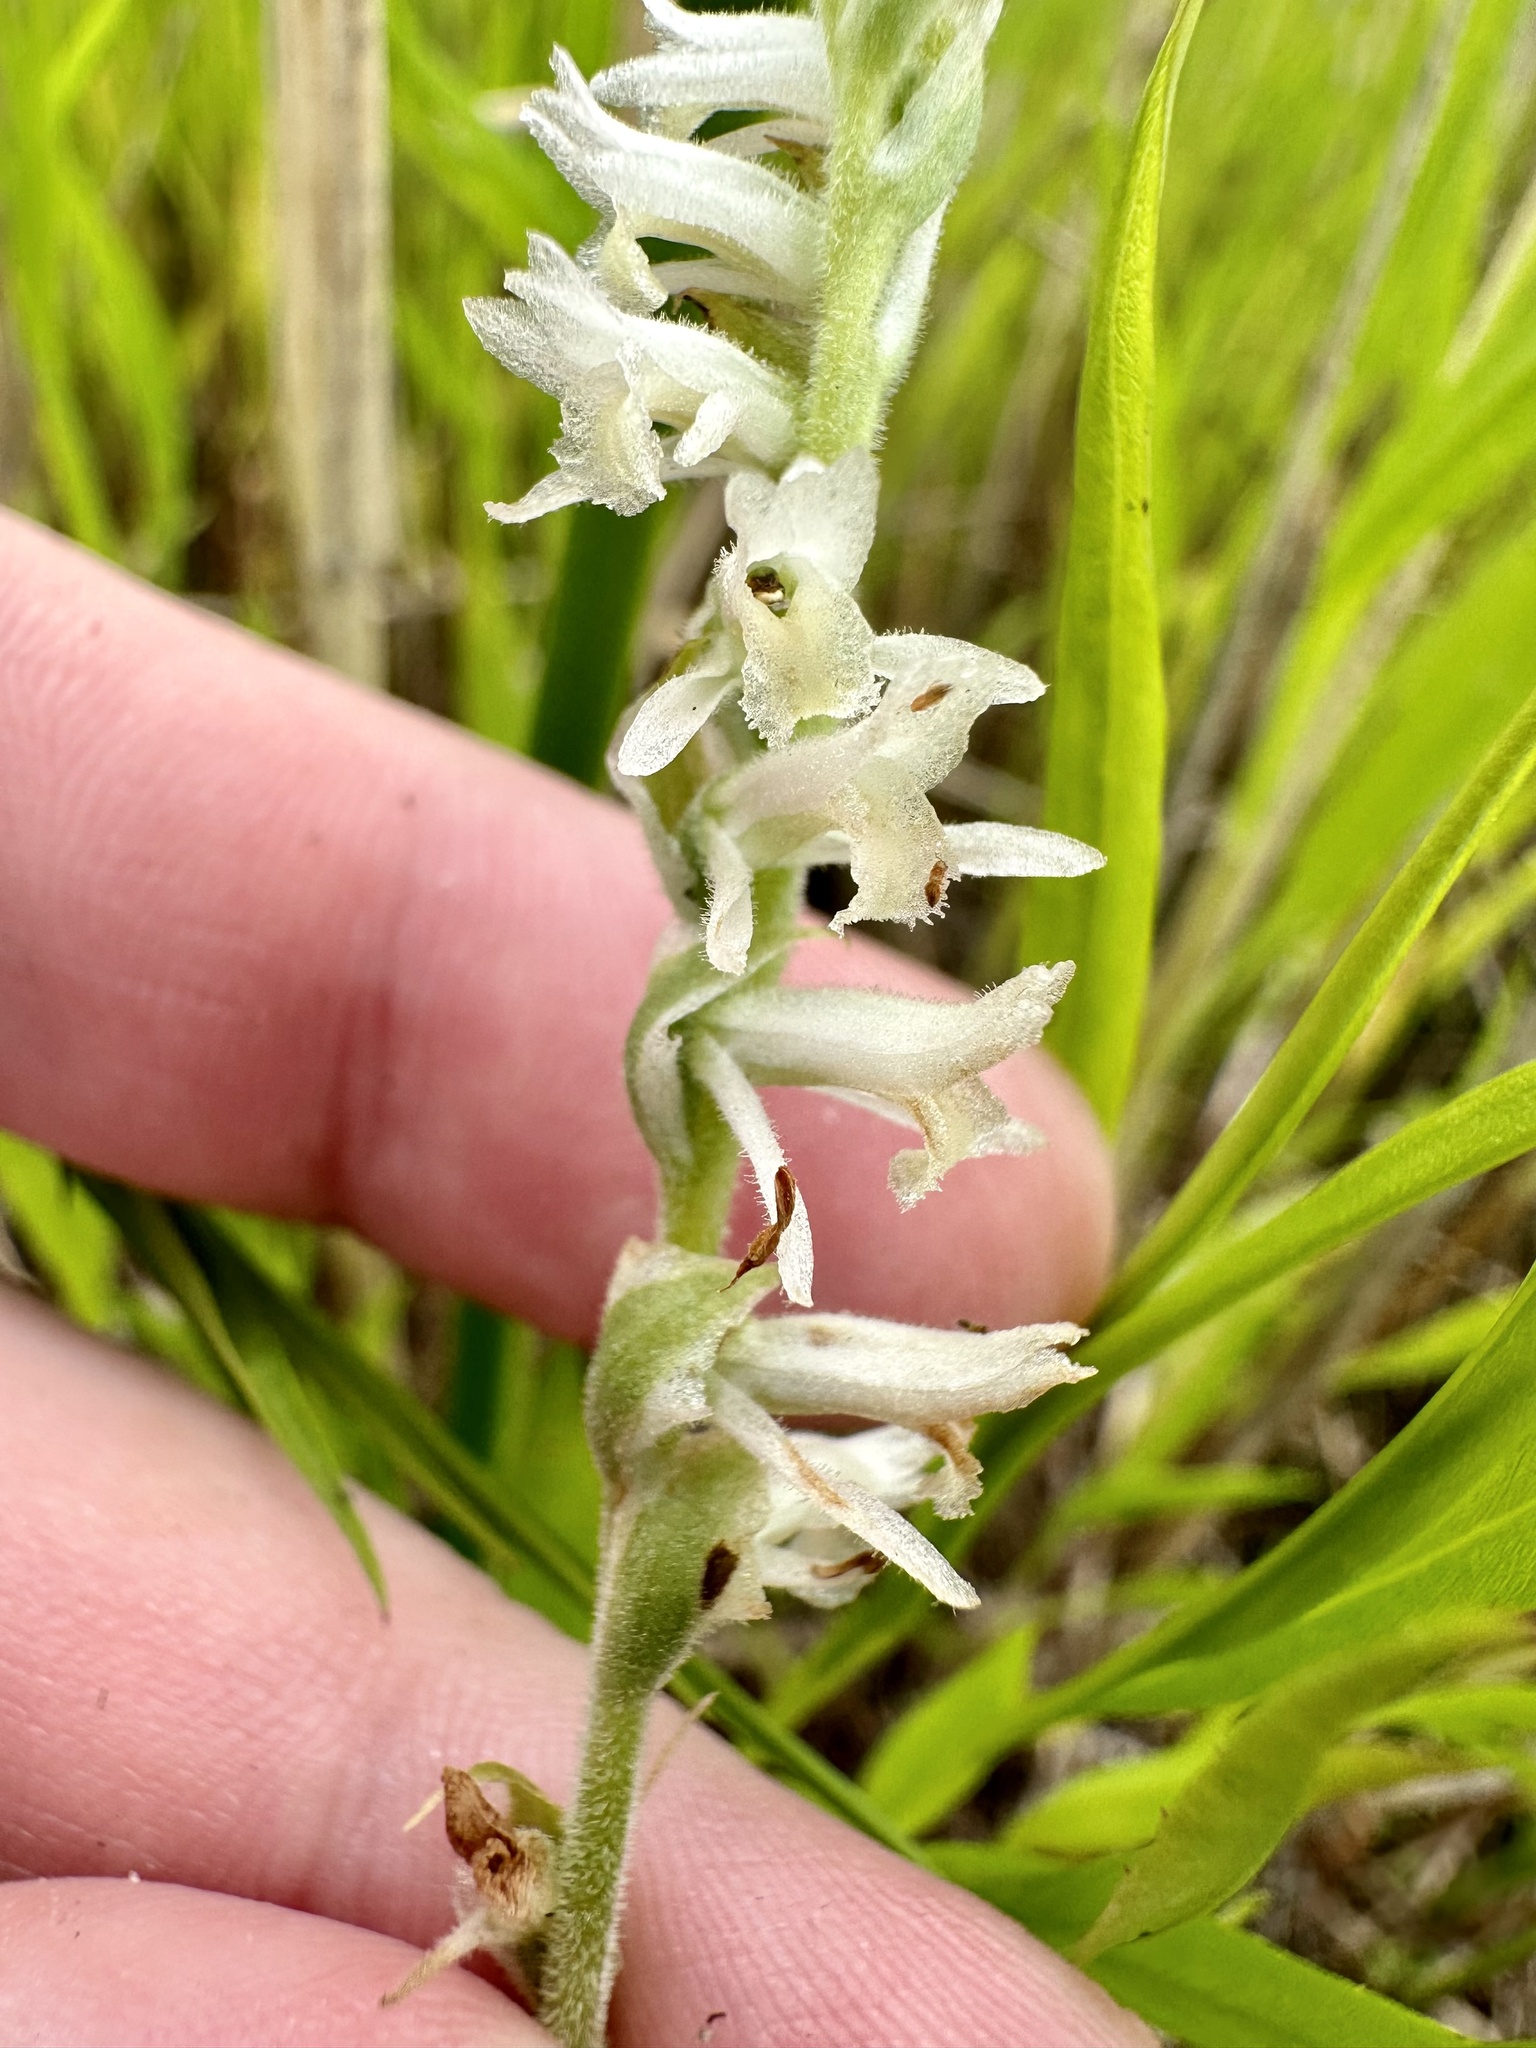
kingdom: Plantae
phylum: Tracheophyta
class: Liliopsida
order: Asparagales
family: Orchidaceae
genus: Spiranthes
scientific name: Spiranthes vernalis
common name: Spring ladies'-tresses
